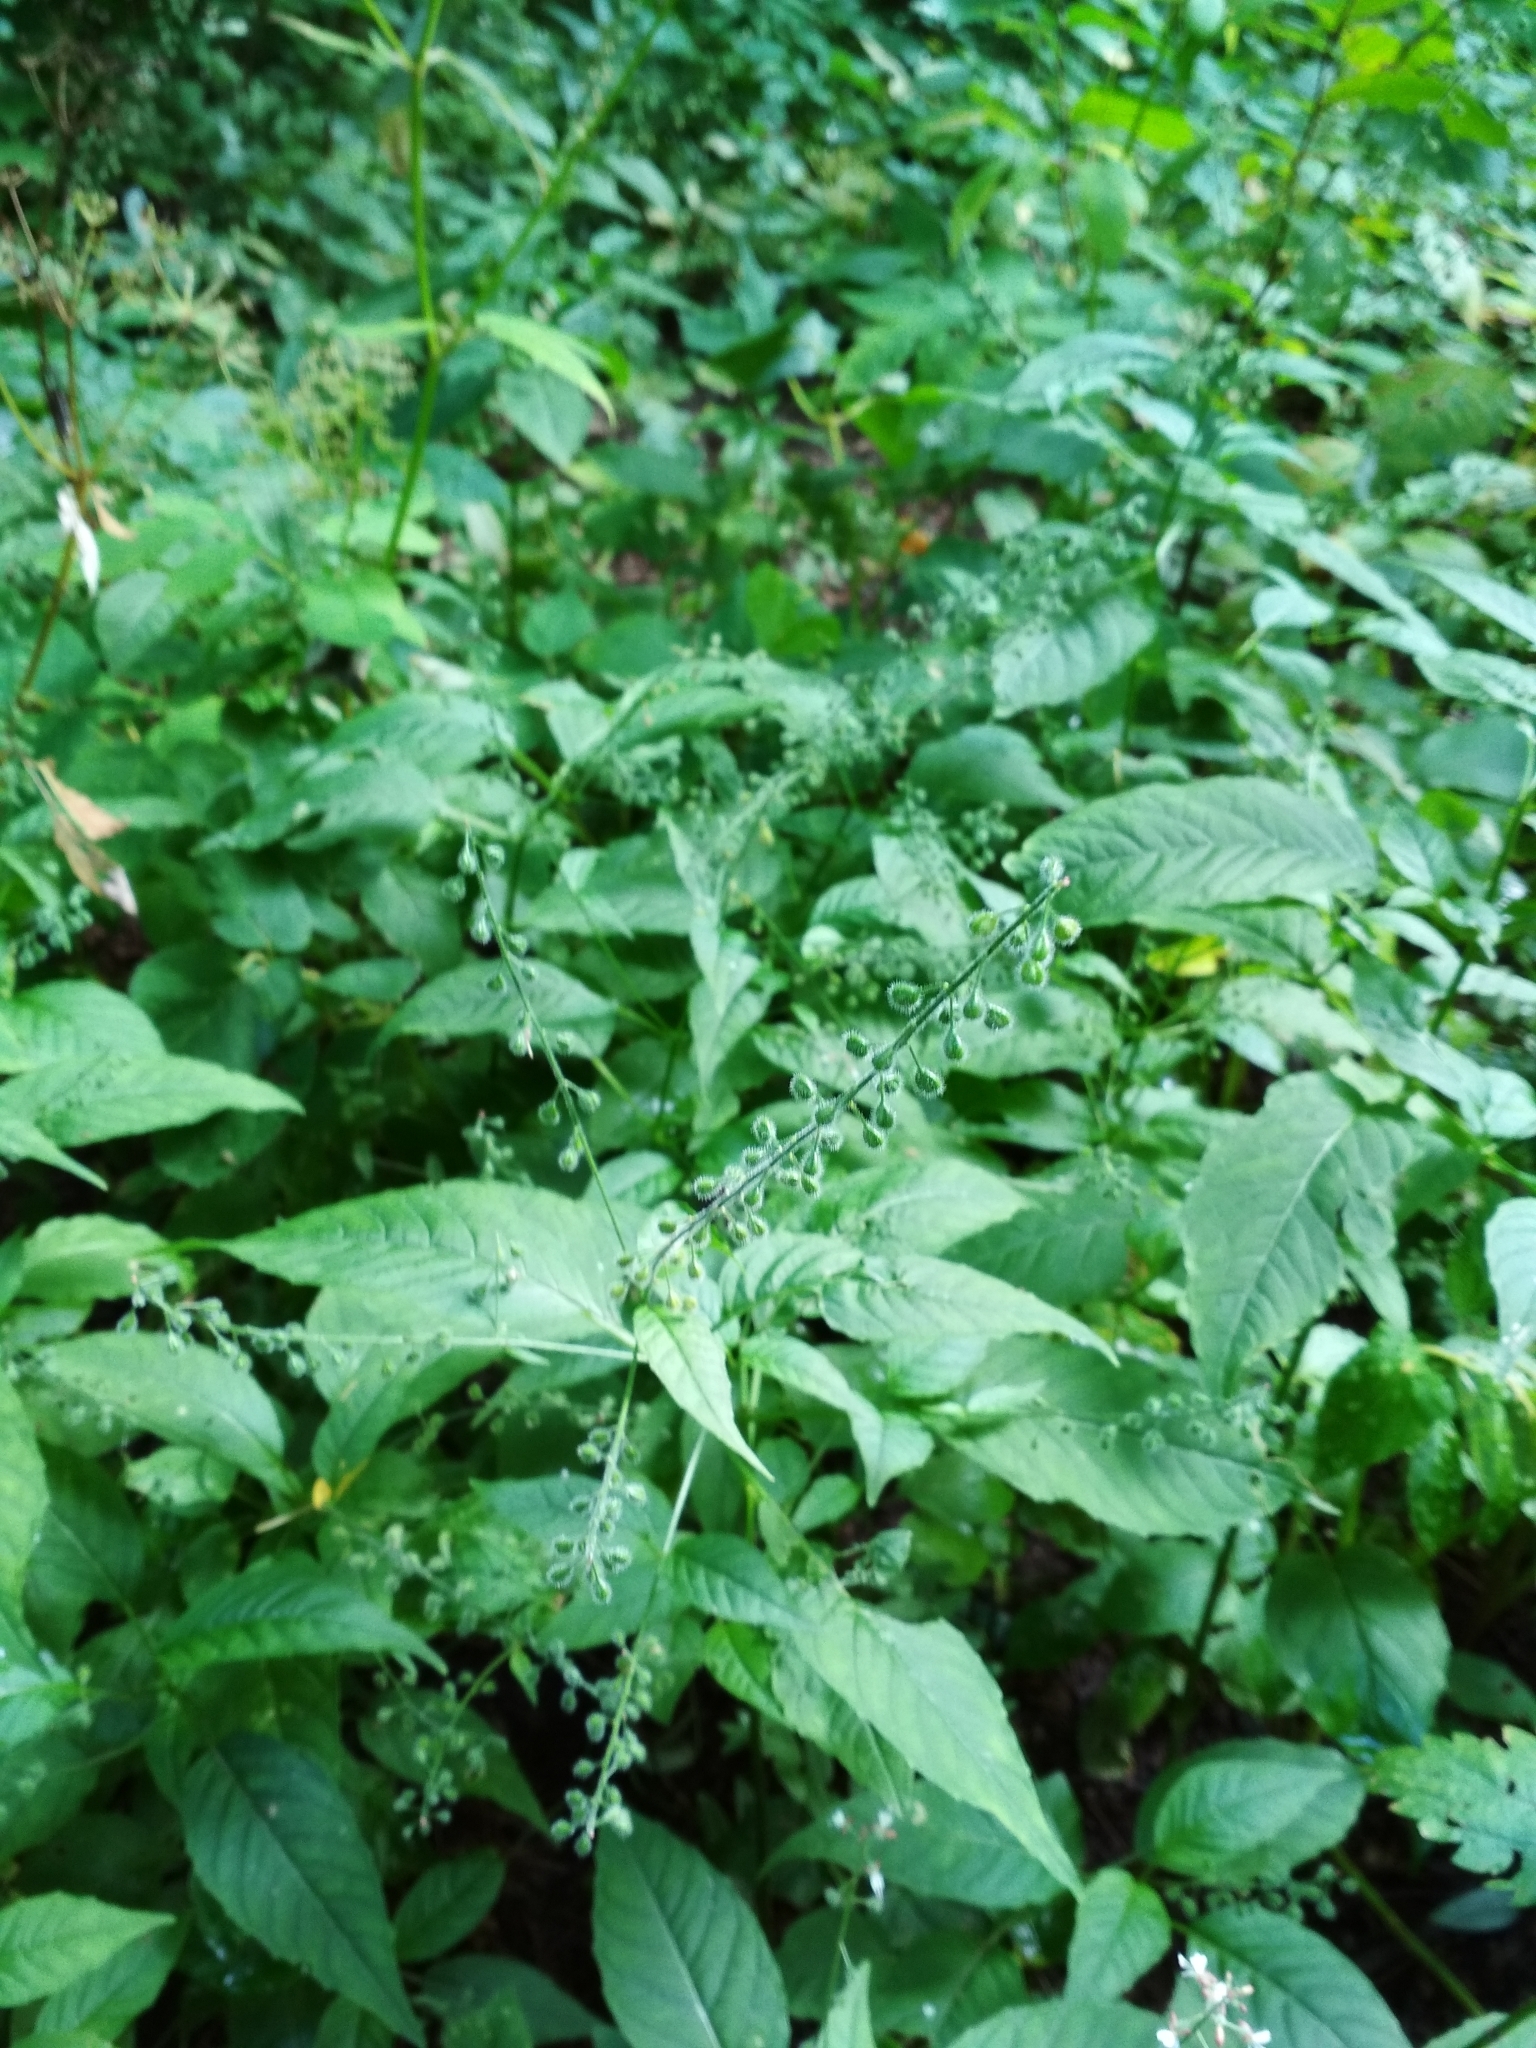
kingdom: Plantae
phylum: Tracheophyta
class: Magnoliopsida
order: Myrtales
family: Onagraceae
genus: Circaea
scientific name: Circaea lutetiana
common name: Enchanter's-nightshade
